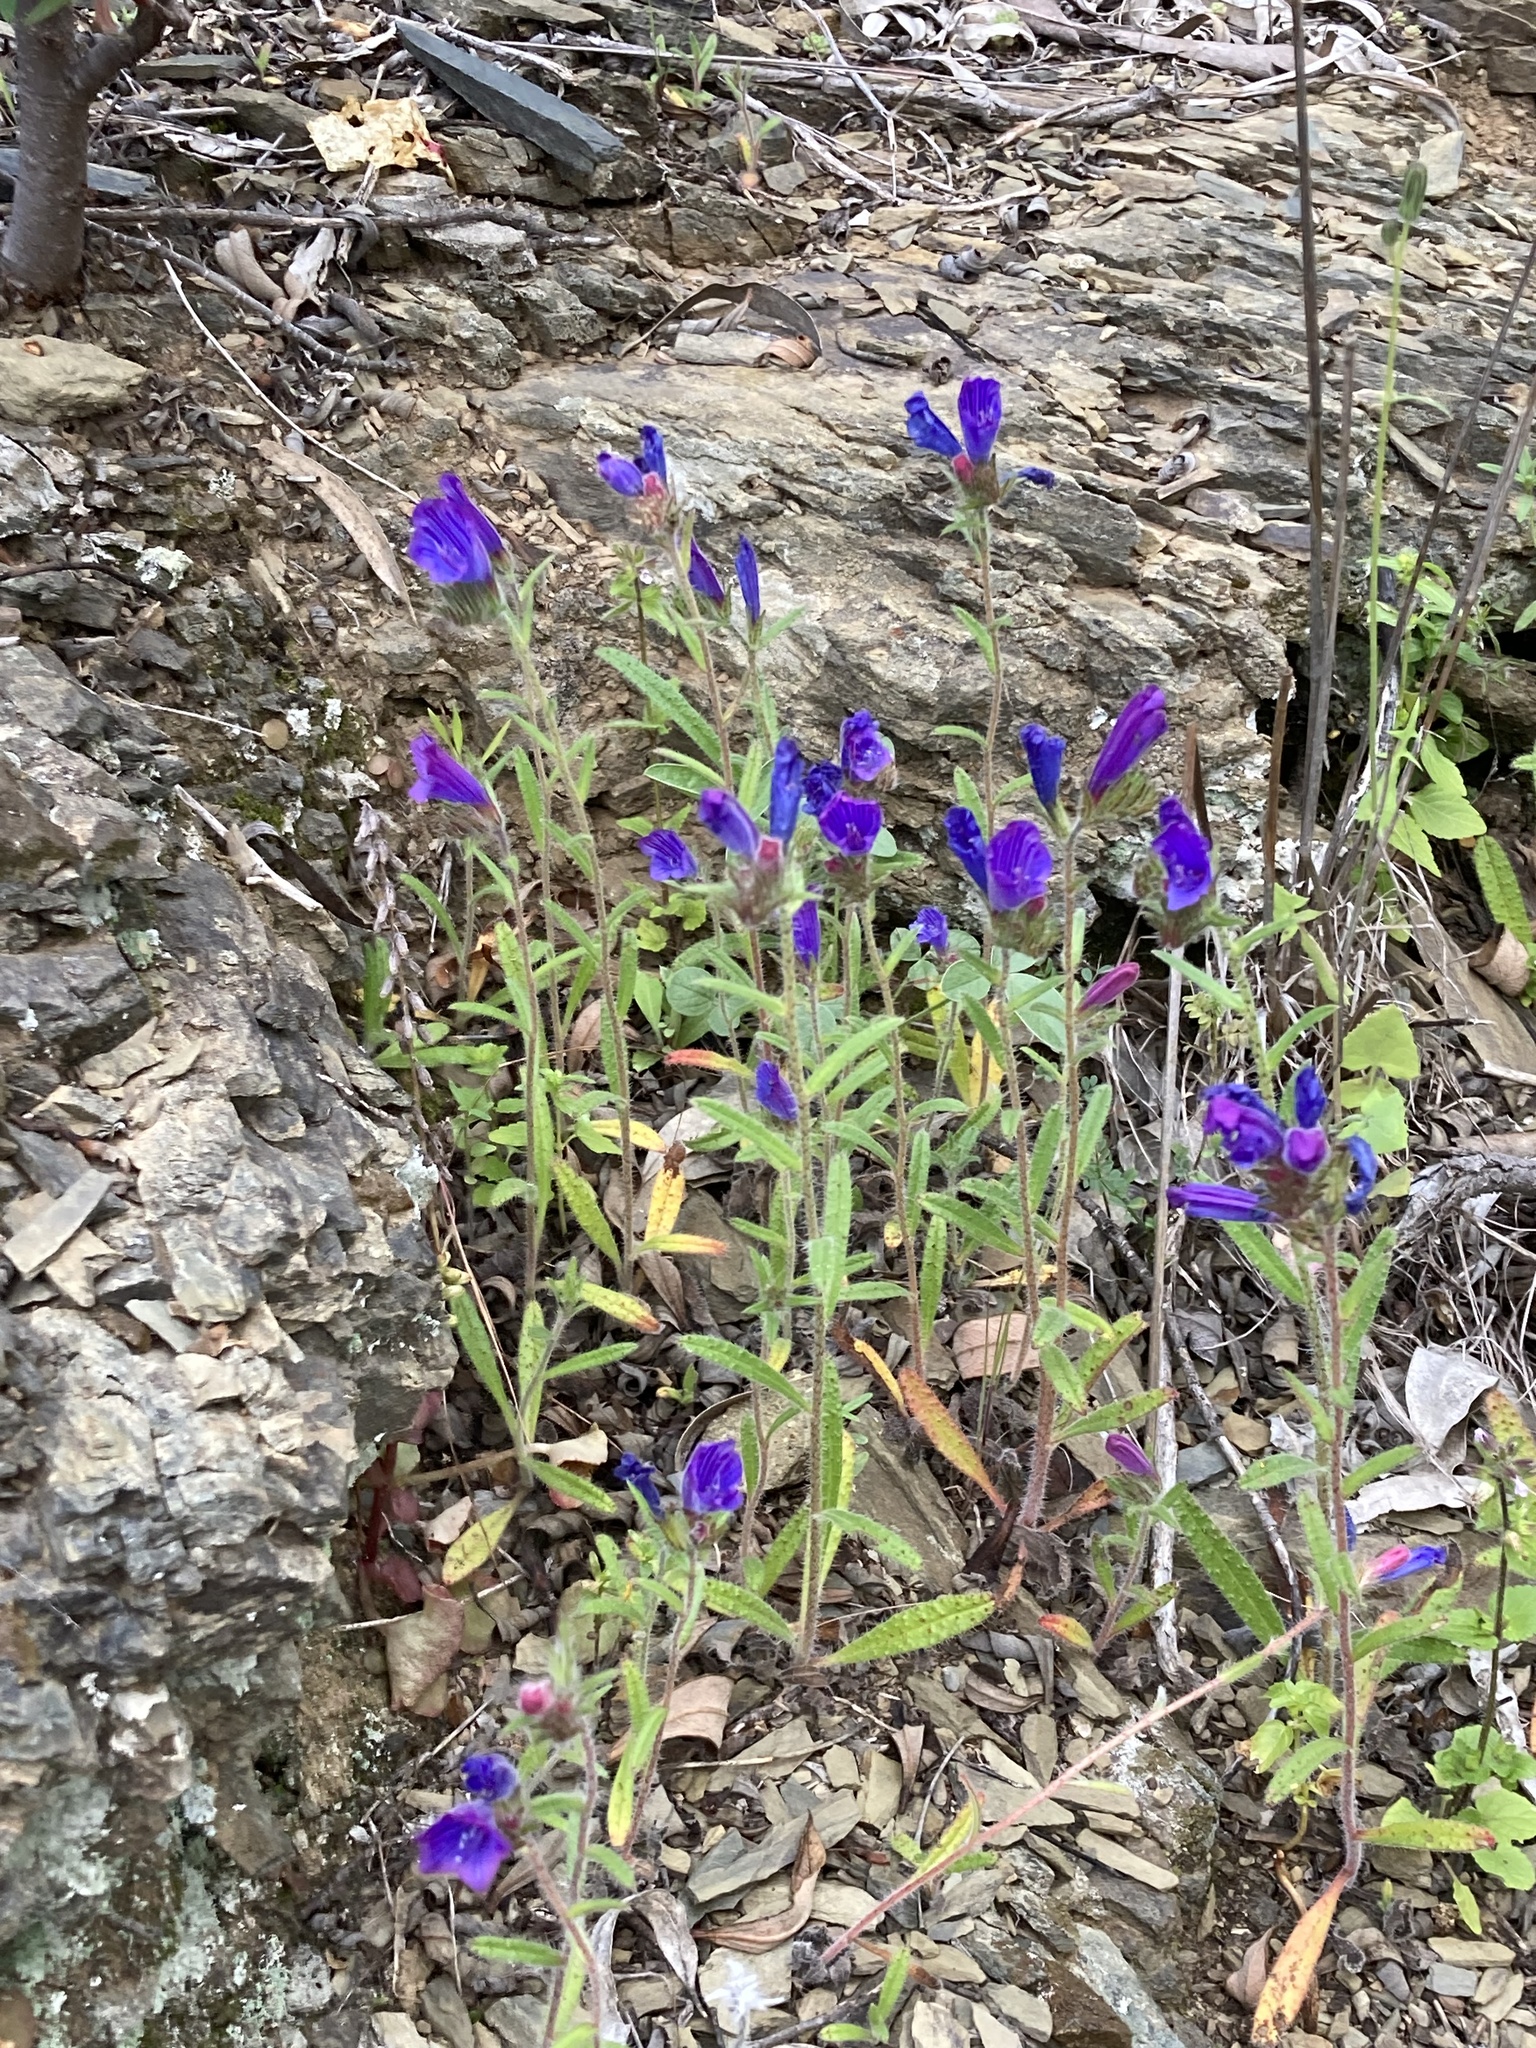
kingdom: Plantae
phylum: Tracheophyta
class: Magnoliopsida
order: Boraginales
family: Boraginaceae
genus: Echium
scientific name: Echium creticum
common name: Cretan viper's bugloss
